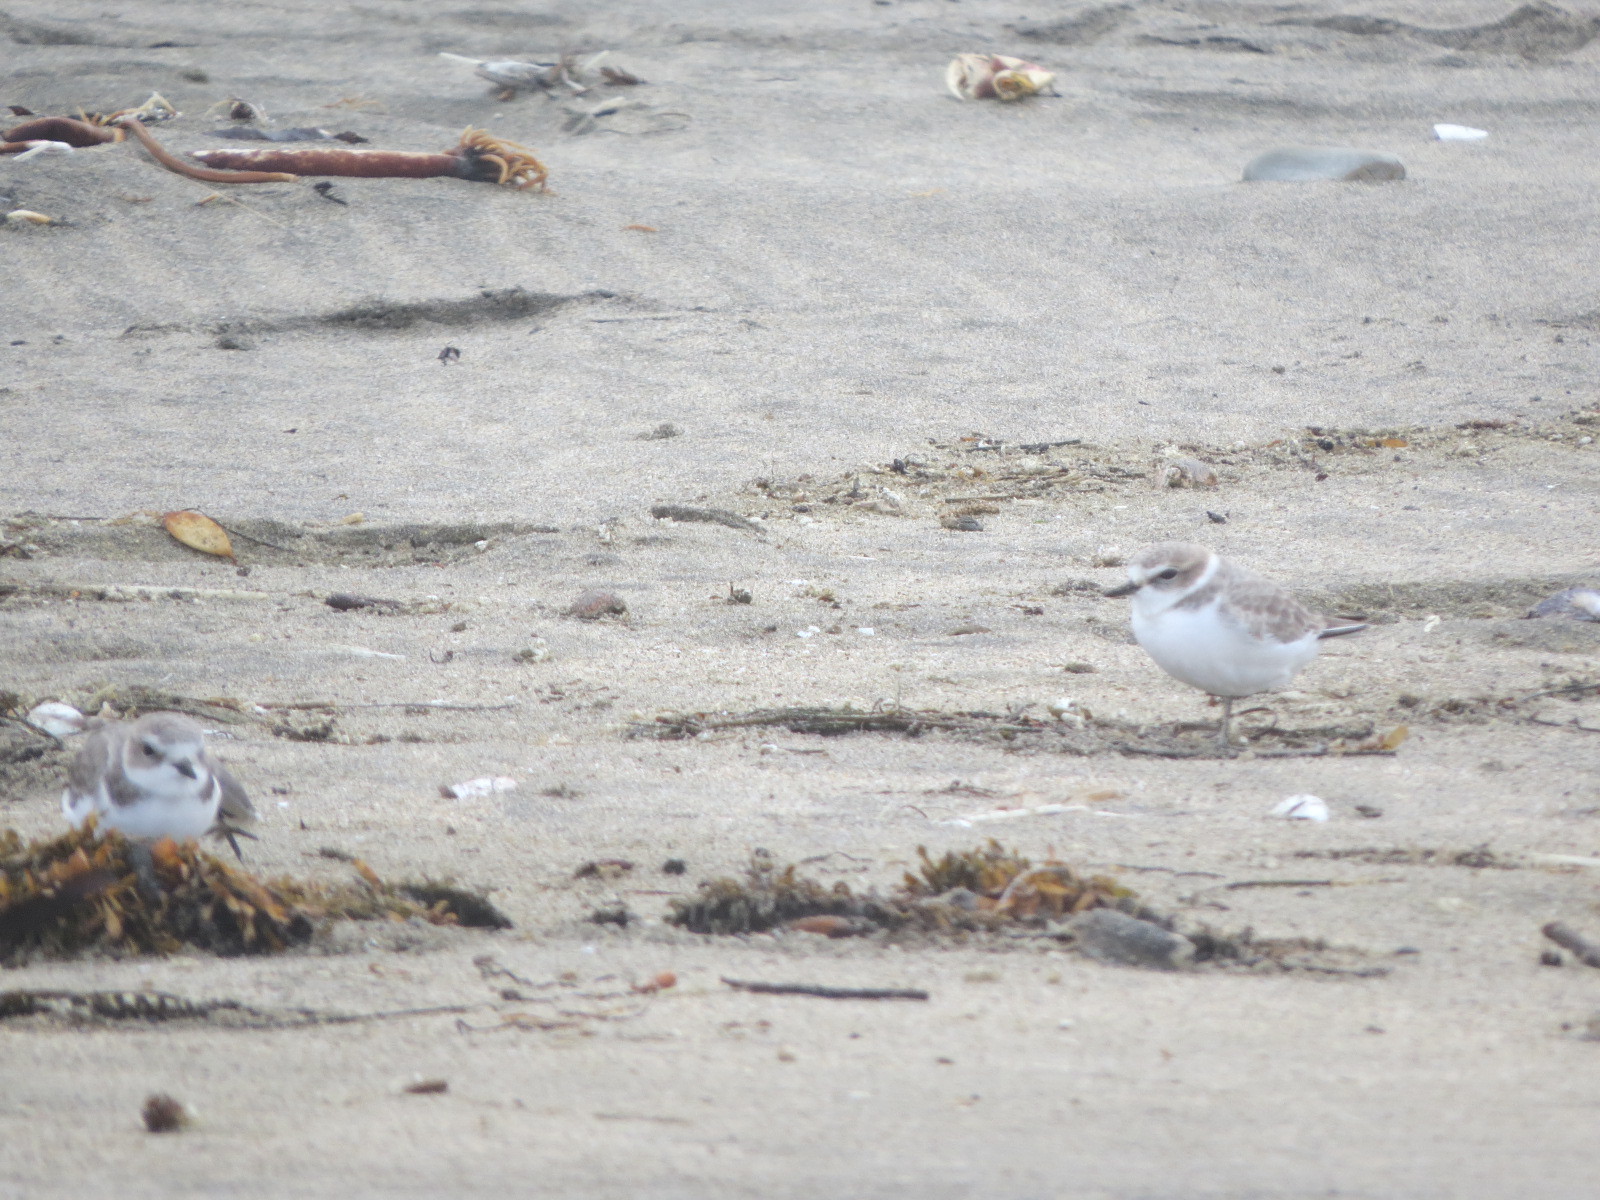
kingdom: Animalia
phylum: Chordata
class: Aves
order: Charadriiformes
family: Charadriidae
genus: Anarhynchus
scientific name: Anarhynchus
